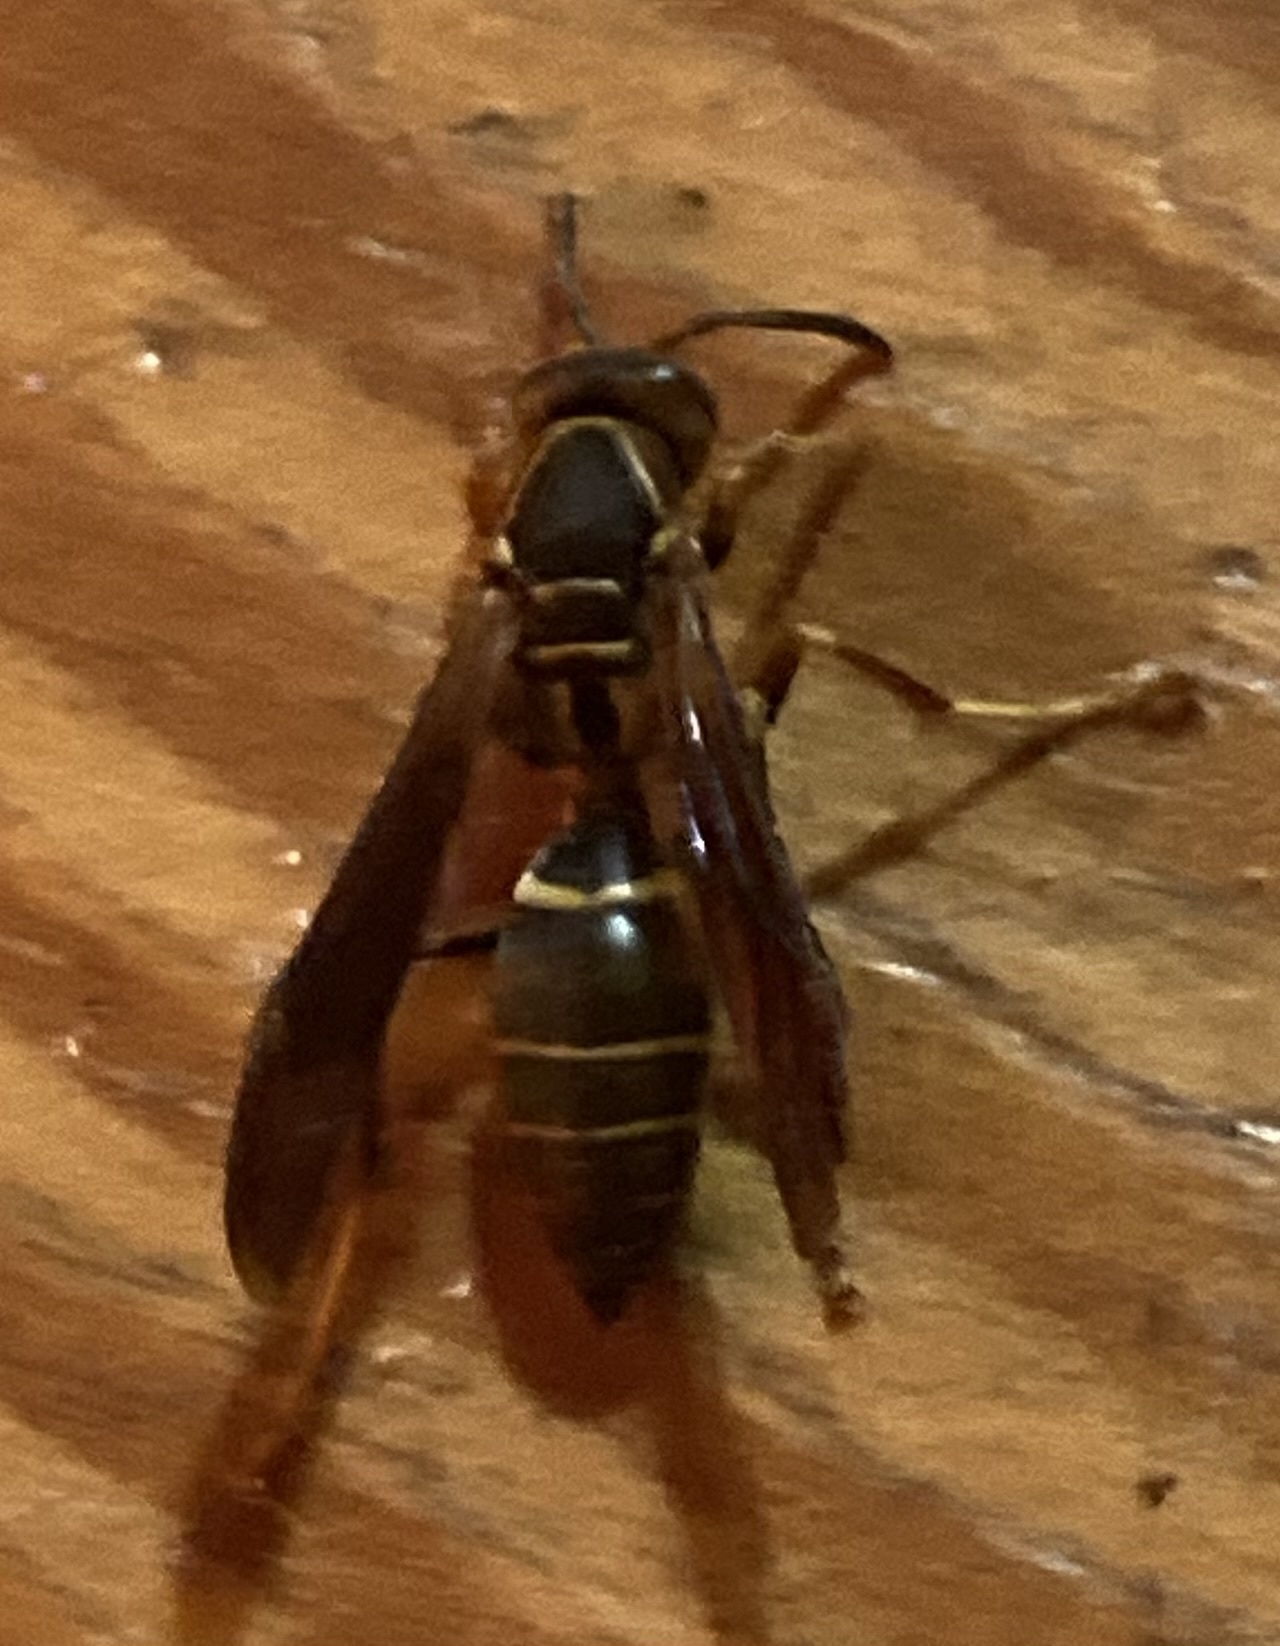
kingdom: Animalia
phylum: Arthropoda
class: Insecta
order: Hymenoptera
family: Eumenidae
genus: Polistes
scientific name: Polistes fuscatus
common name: Dark paper wasp
